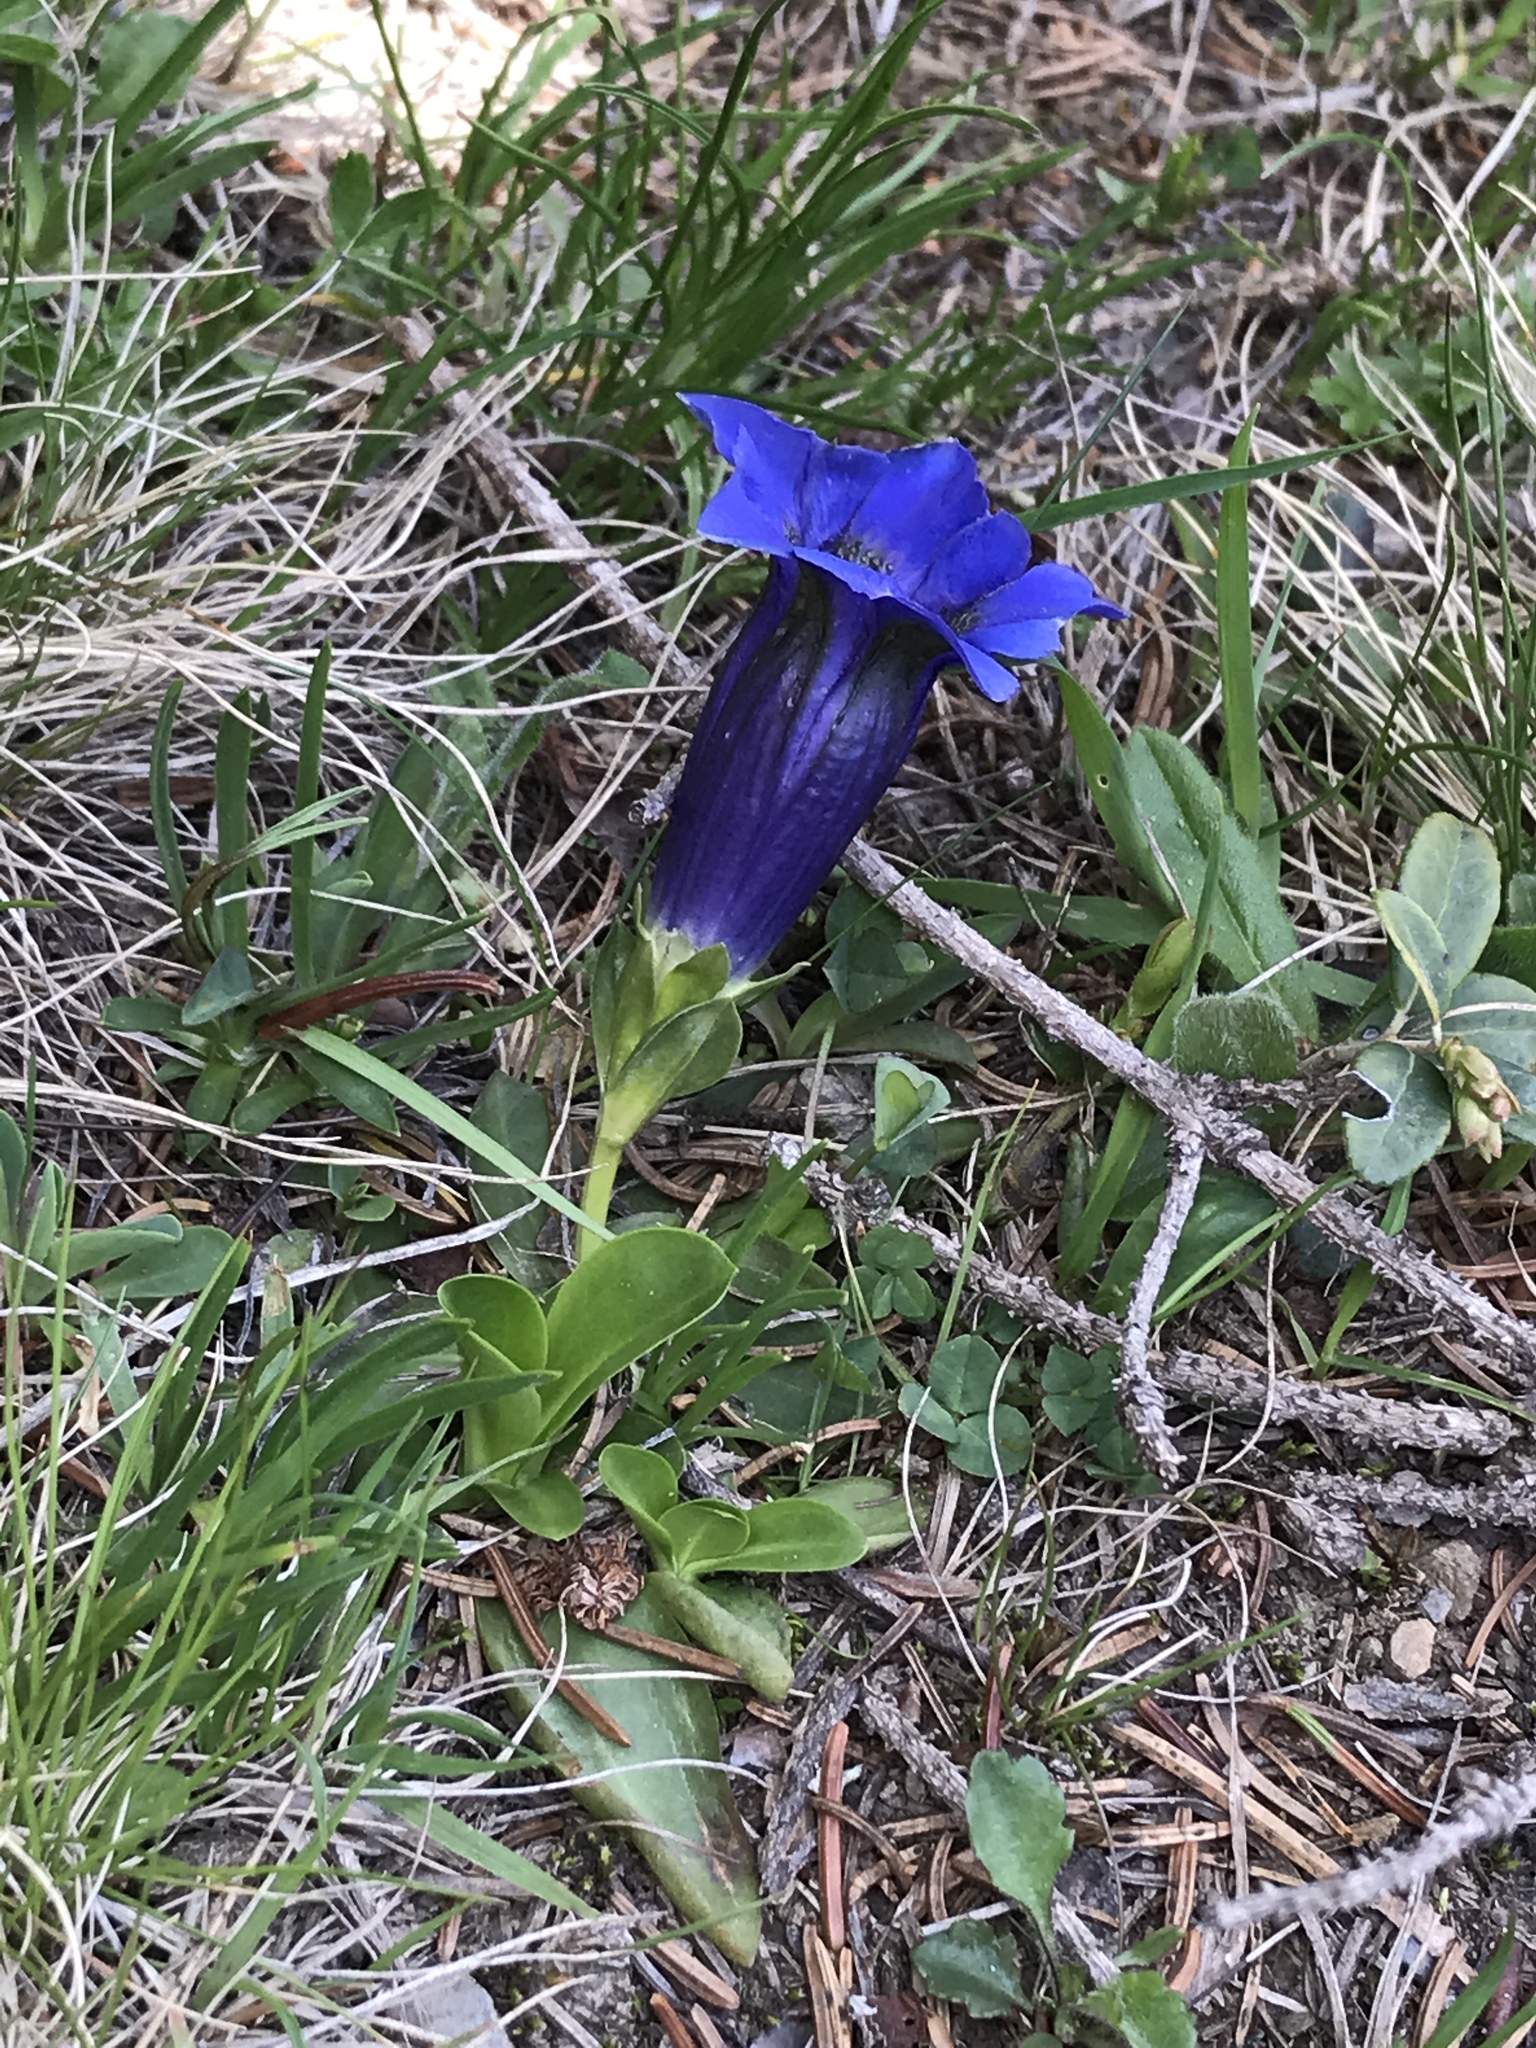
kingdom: Plantae
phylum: Tracheophyta
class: Magnoliopsida
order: Gentianales
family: Gentianaceae
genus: Gentiana
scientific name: Gentiana acaulis
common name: Trumpet gentian
